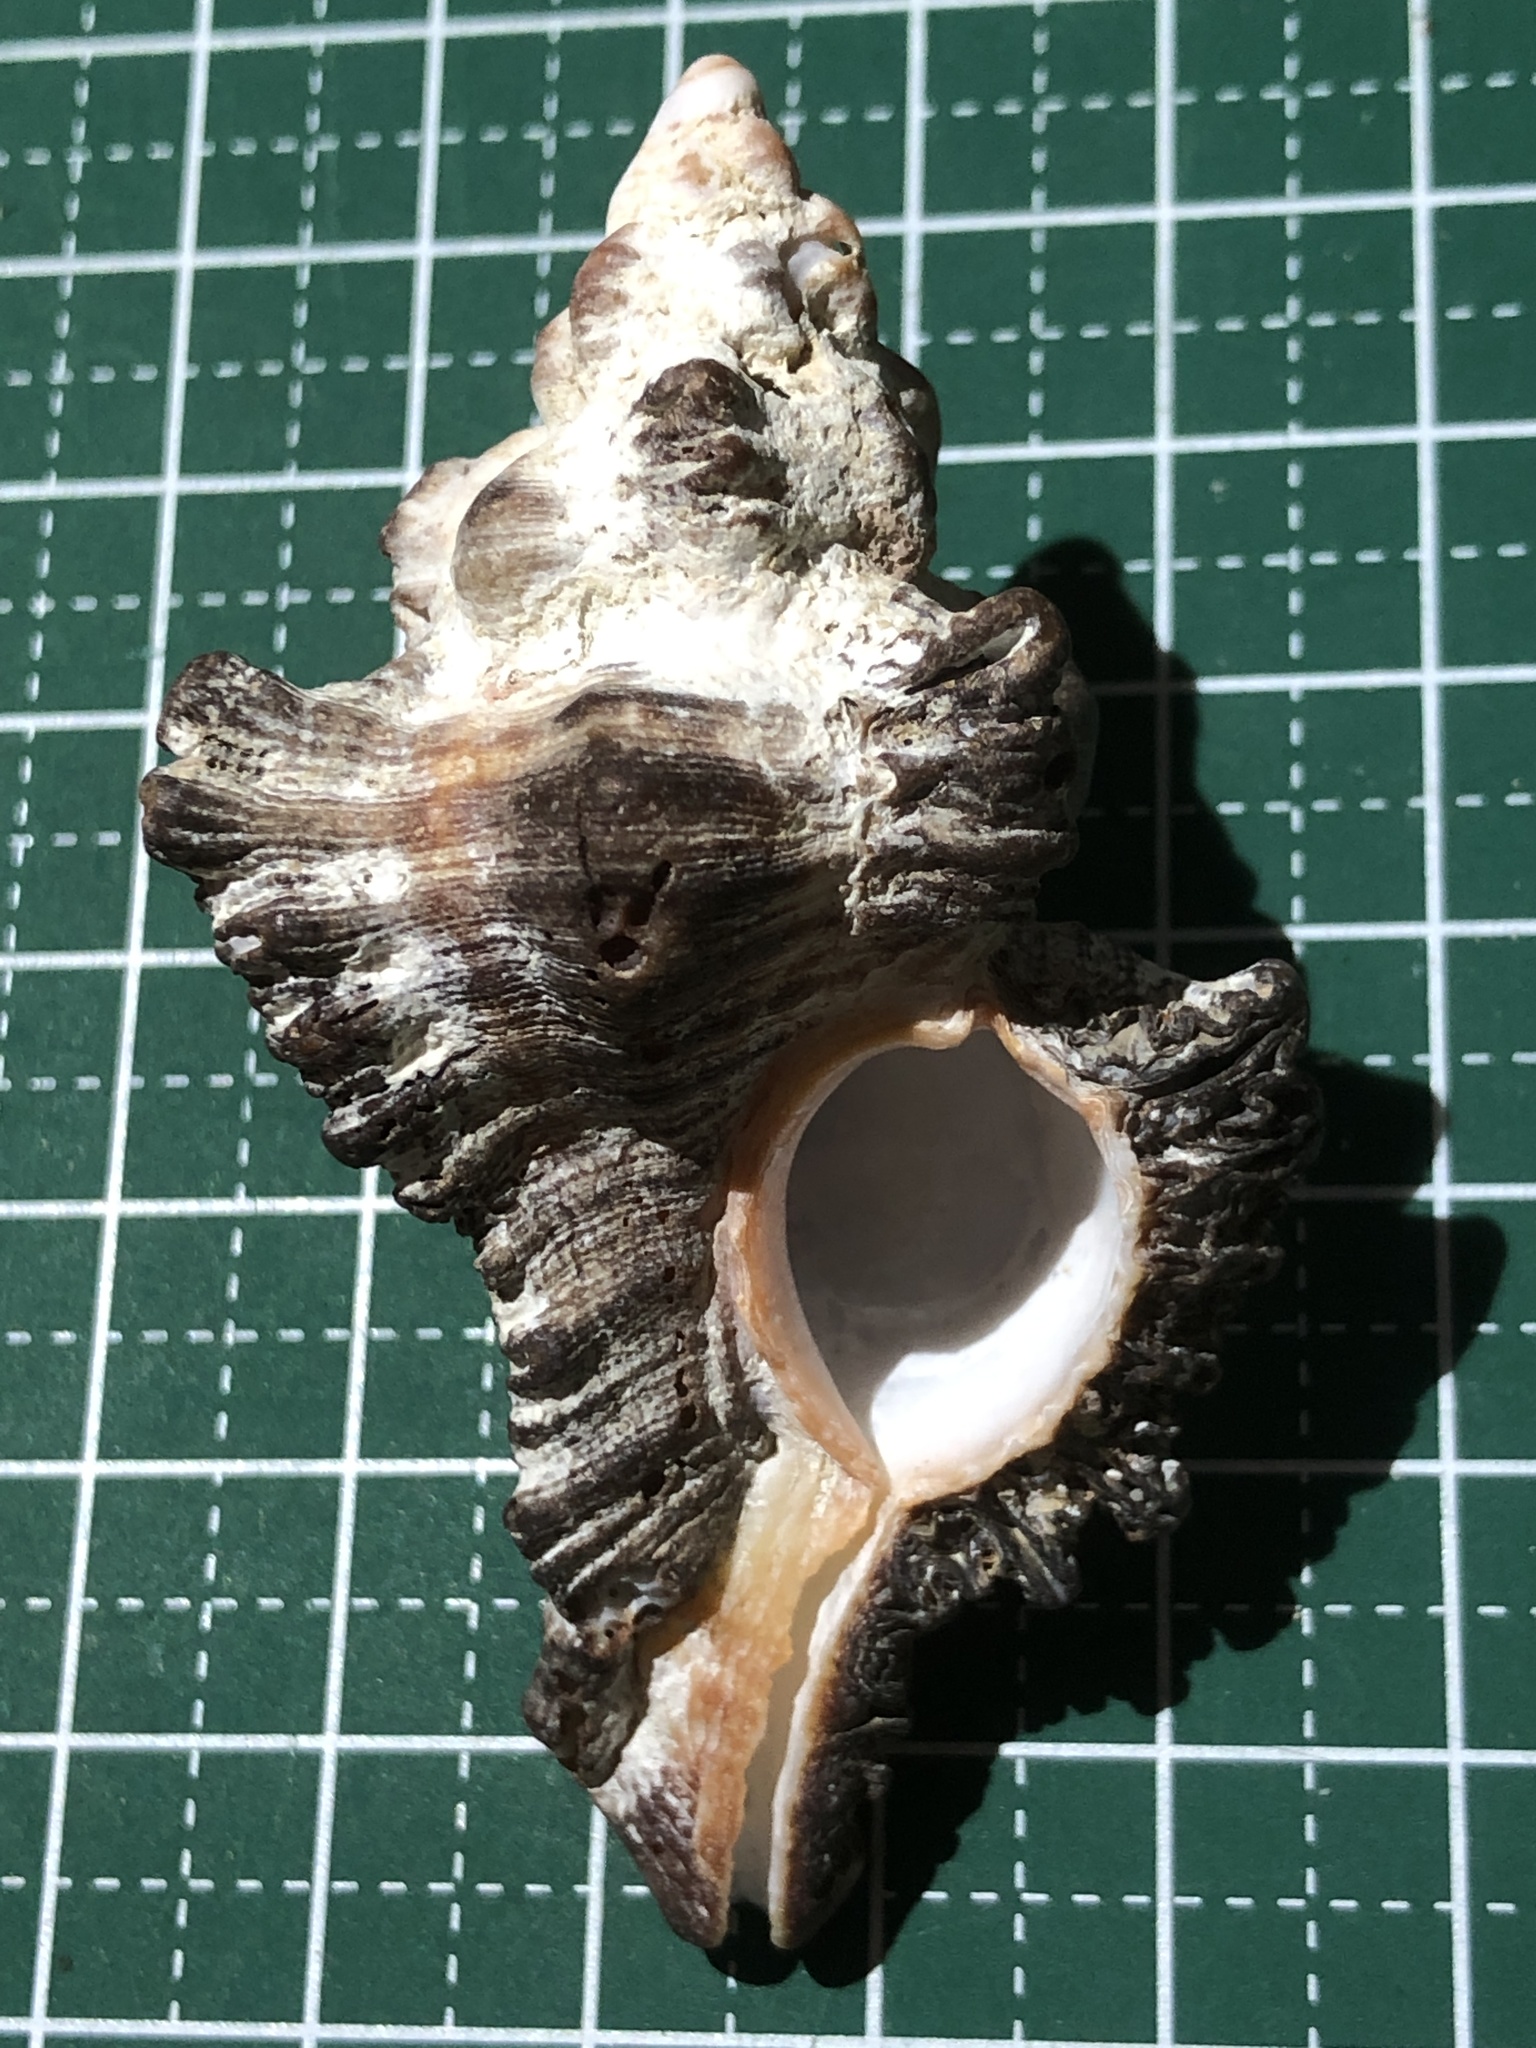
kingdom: Animalia
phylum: Mollusca
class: Gastropoda
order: Neogastropoda
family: Muricidae
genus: Chicoreus
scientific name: Chicoreus brunneus
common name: Adusta murex
